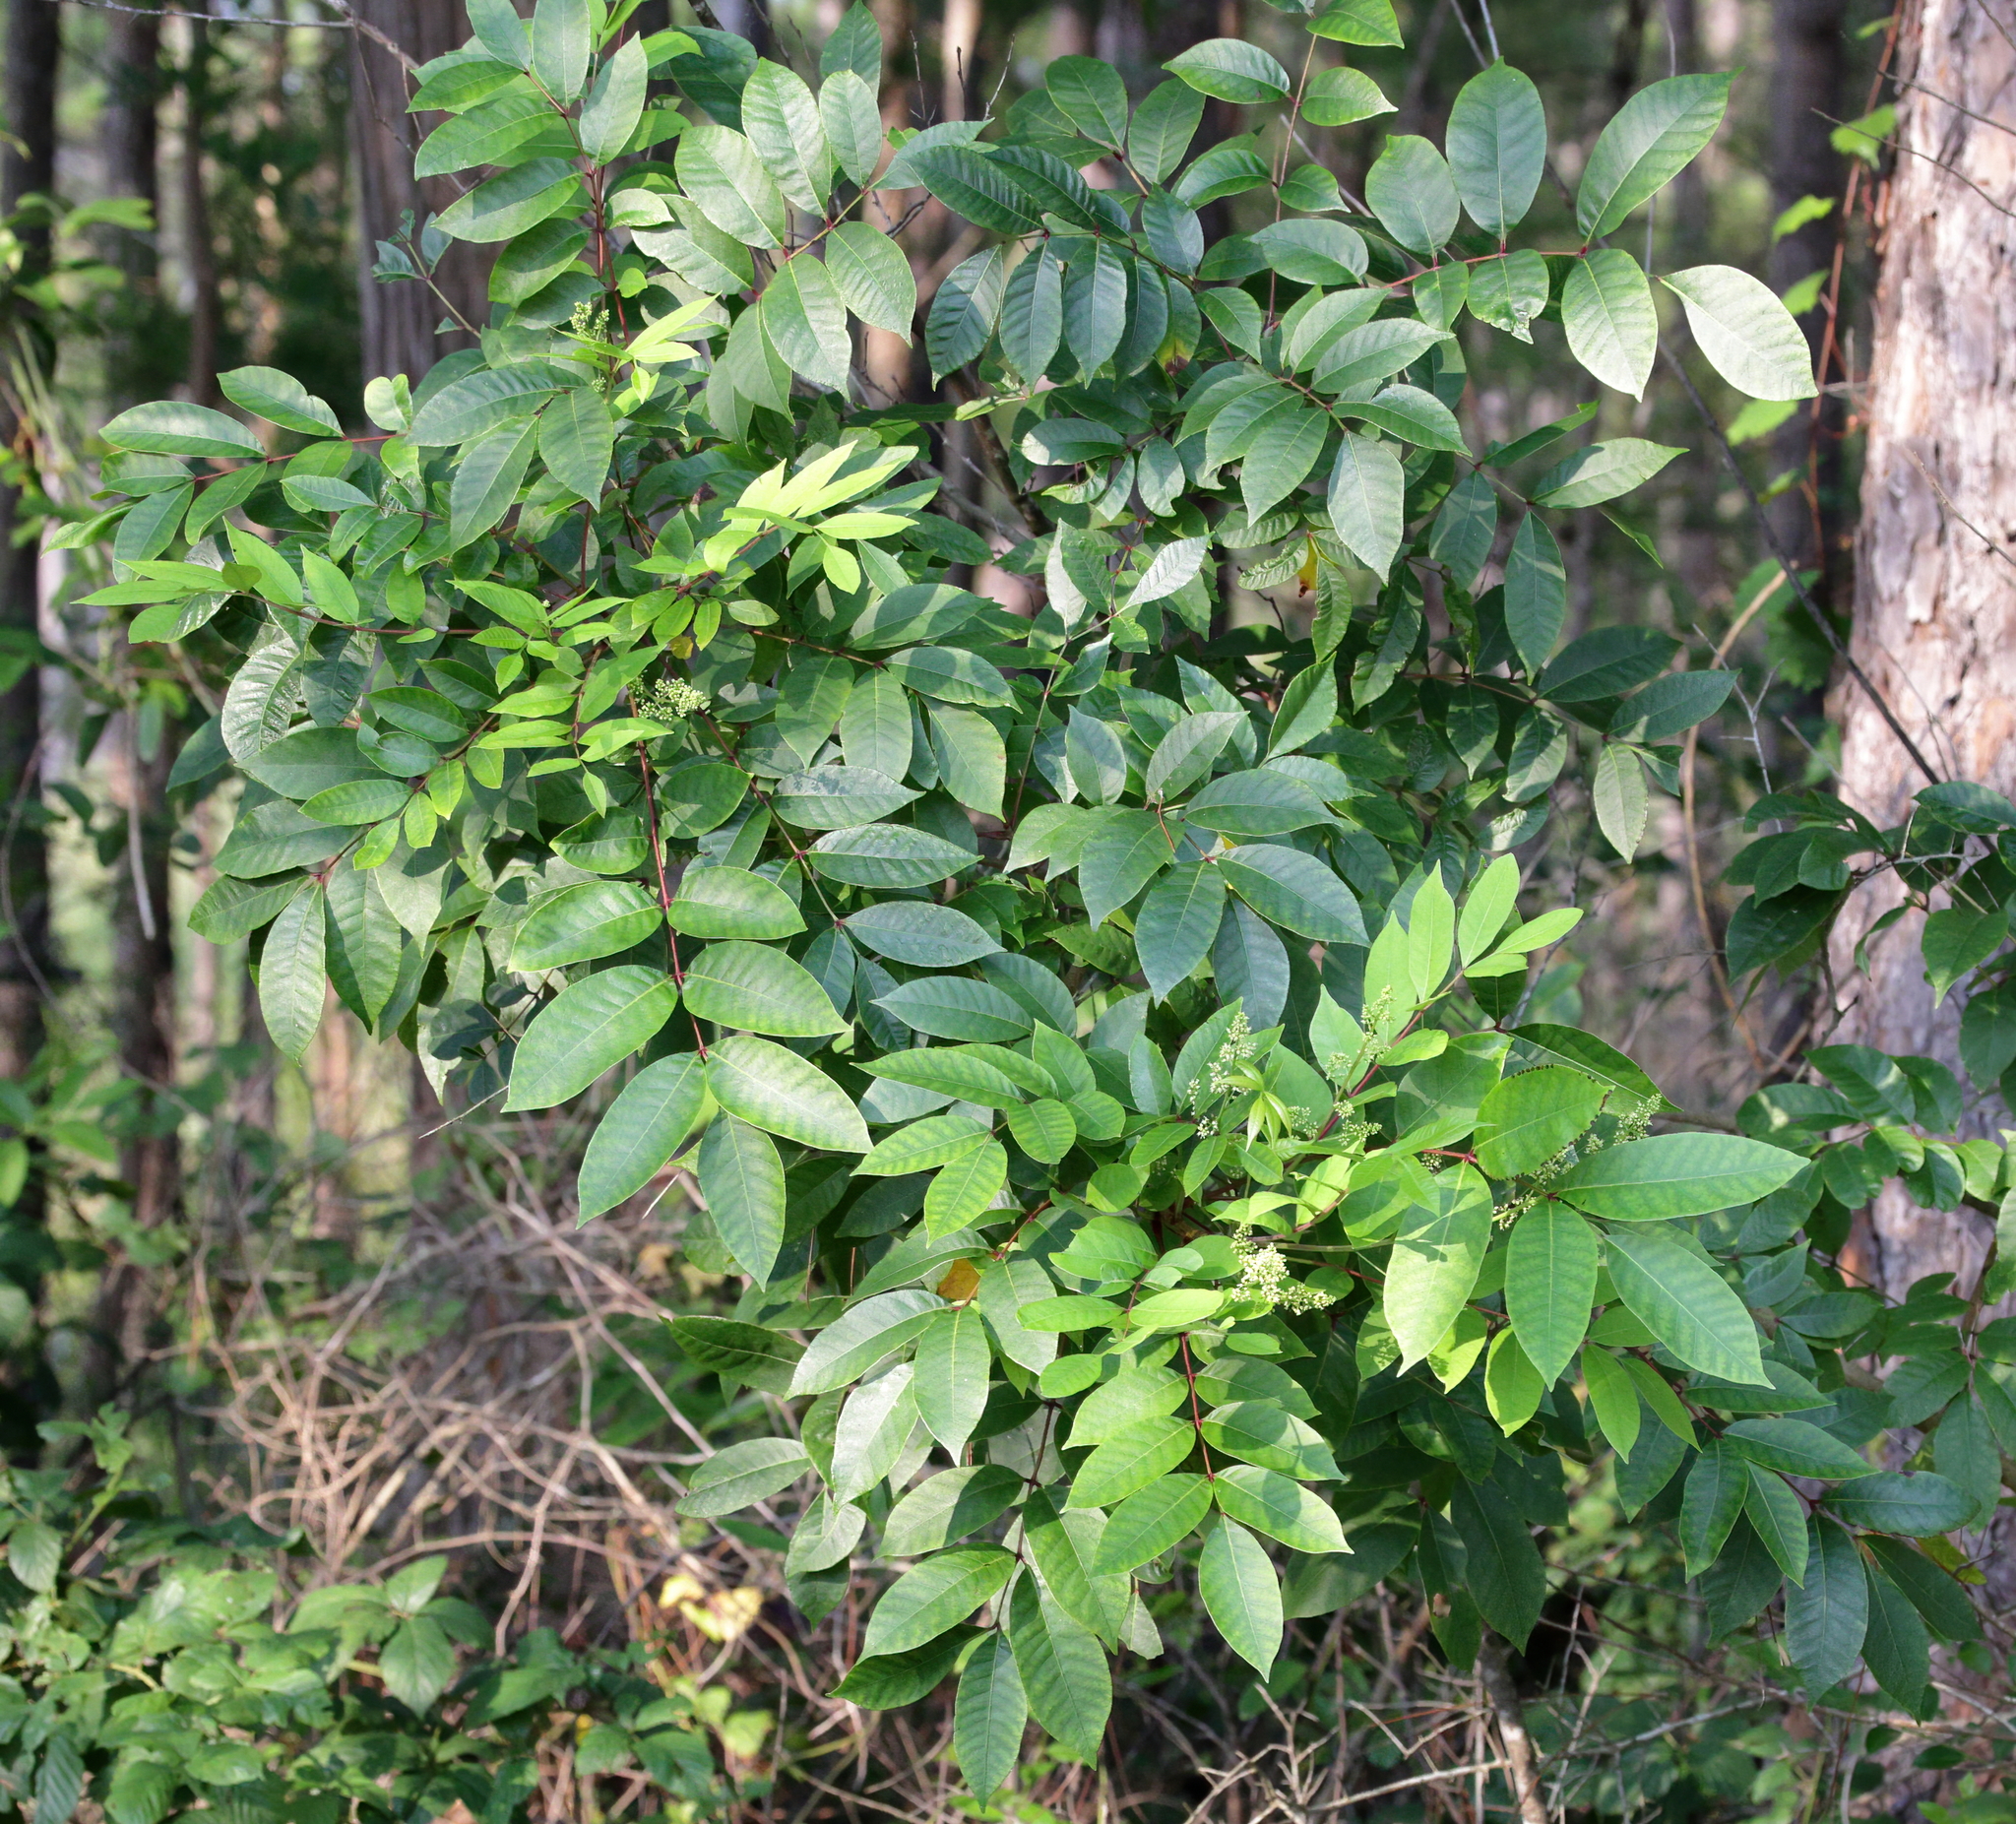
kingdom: Plantae
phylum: Tracheophyta
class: Magnoliopsida
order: Sapindales
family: Anacardiaceae
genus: Toxicodendron
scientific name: Toxicodendron vernix
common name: Poison sumac
